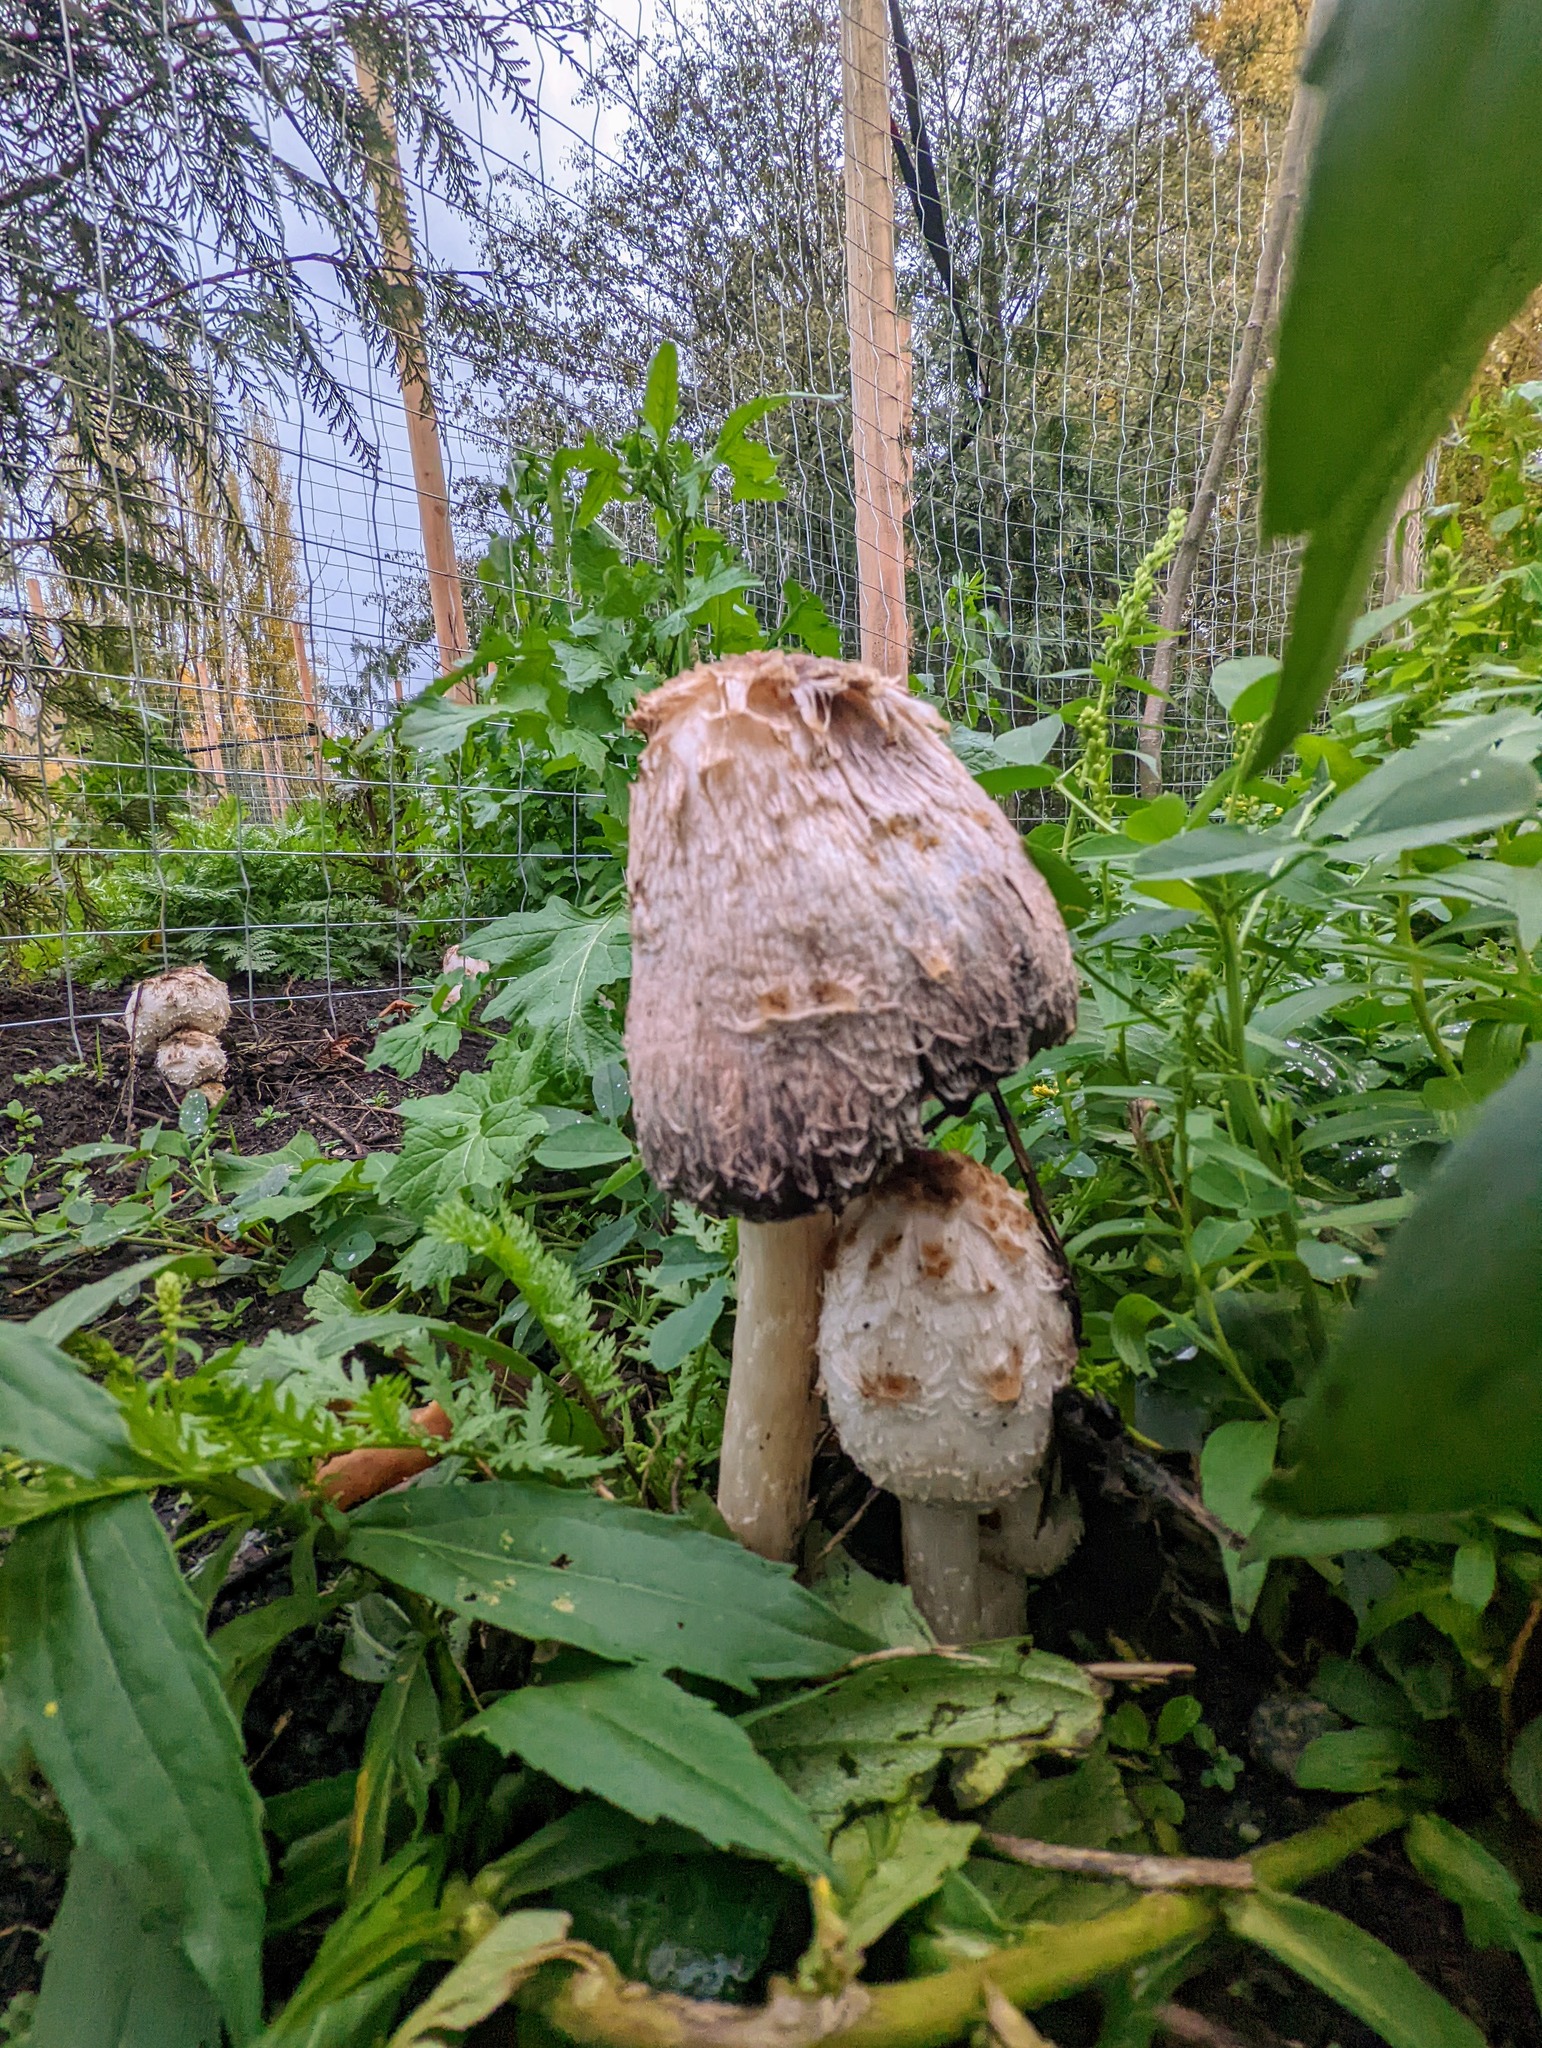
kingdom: Fungi
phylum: Basidiomycota
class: Agaricomycetes
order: Agaricales
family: Agaricaceae
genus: Coprinus
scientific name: Coprinus comatus
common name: Lawyer's wig
